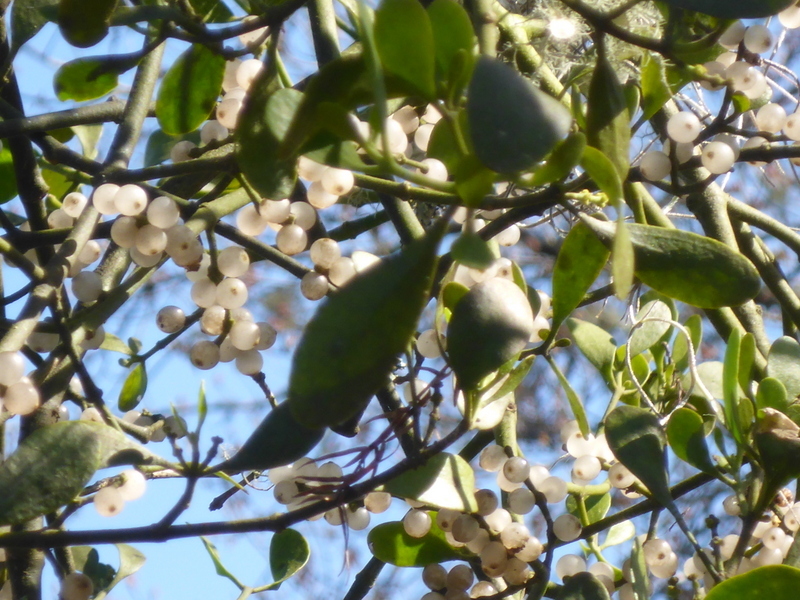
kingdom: Plantae
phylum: Tracheophyta
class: Magnoliopsida
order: Santalales
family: Viscaceae
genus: Phoradendron
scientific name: Phoradendron leucarpum
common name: Pacific mistletoe
